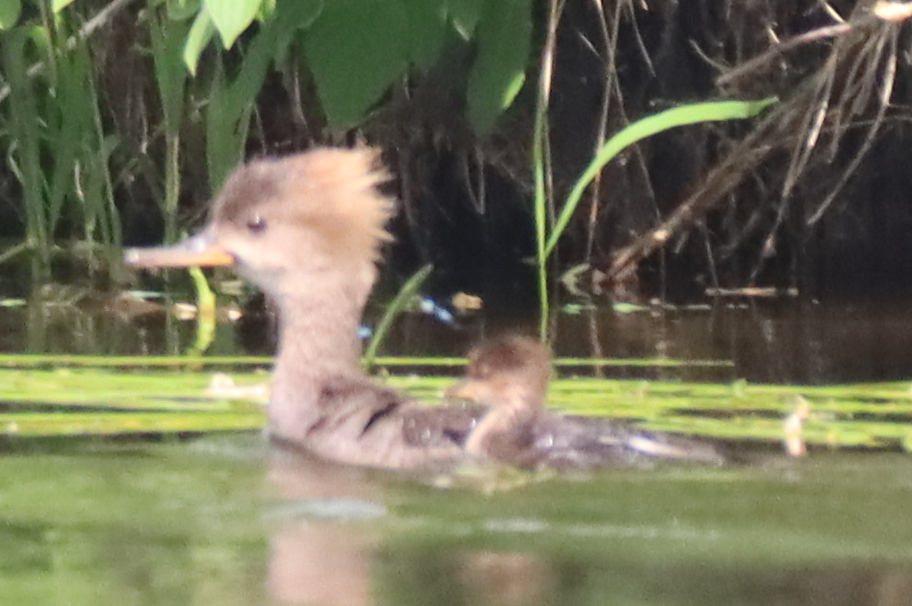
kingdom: Animalia
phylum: Chordata
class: Aves
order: Anseriformes
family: Anatidae
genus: Lophodytes
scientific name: Lophodytes cucullatus
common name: Hooded merganser
